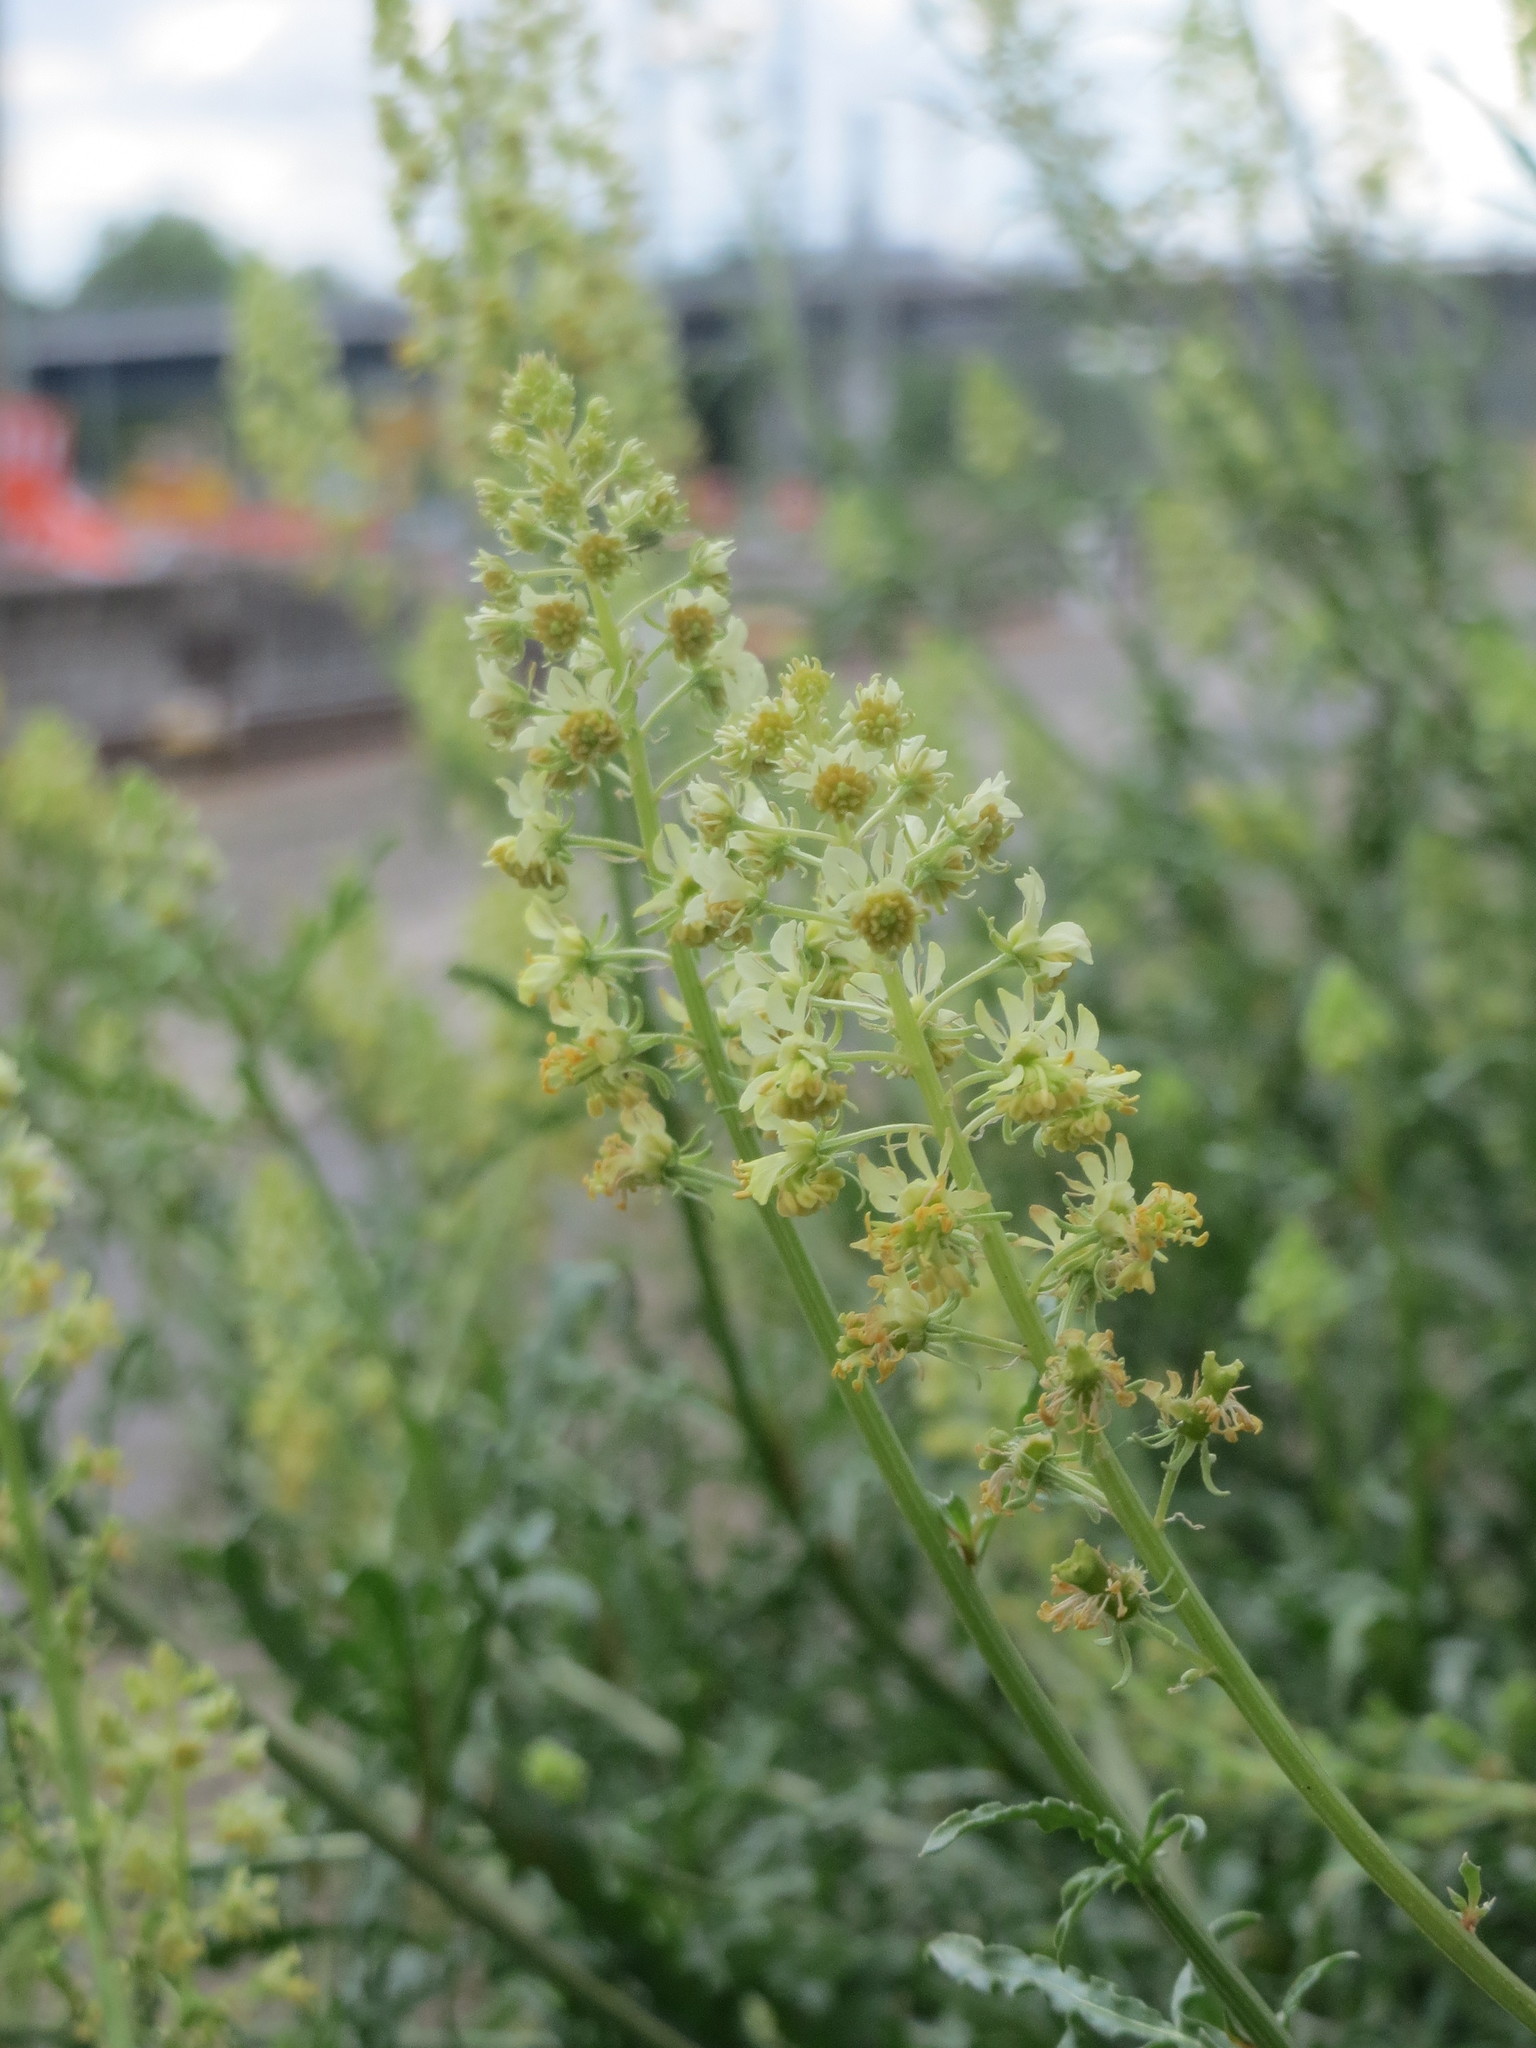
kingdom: Plantae
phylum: Tracheophyta
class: Magnoliopsida
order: Brassicales
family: Resedaceae
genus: Reseda
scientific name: Reseda lutea
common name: Wild mignonette
